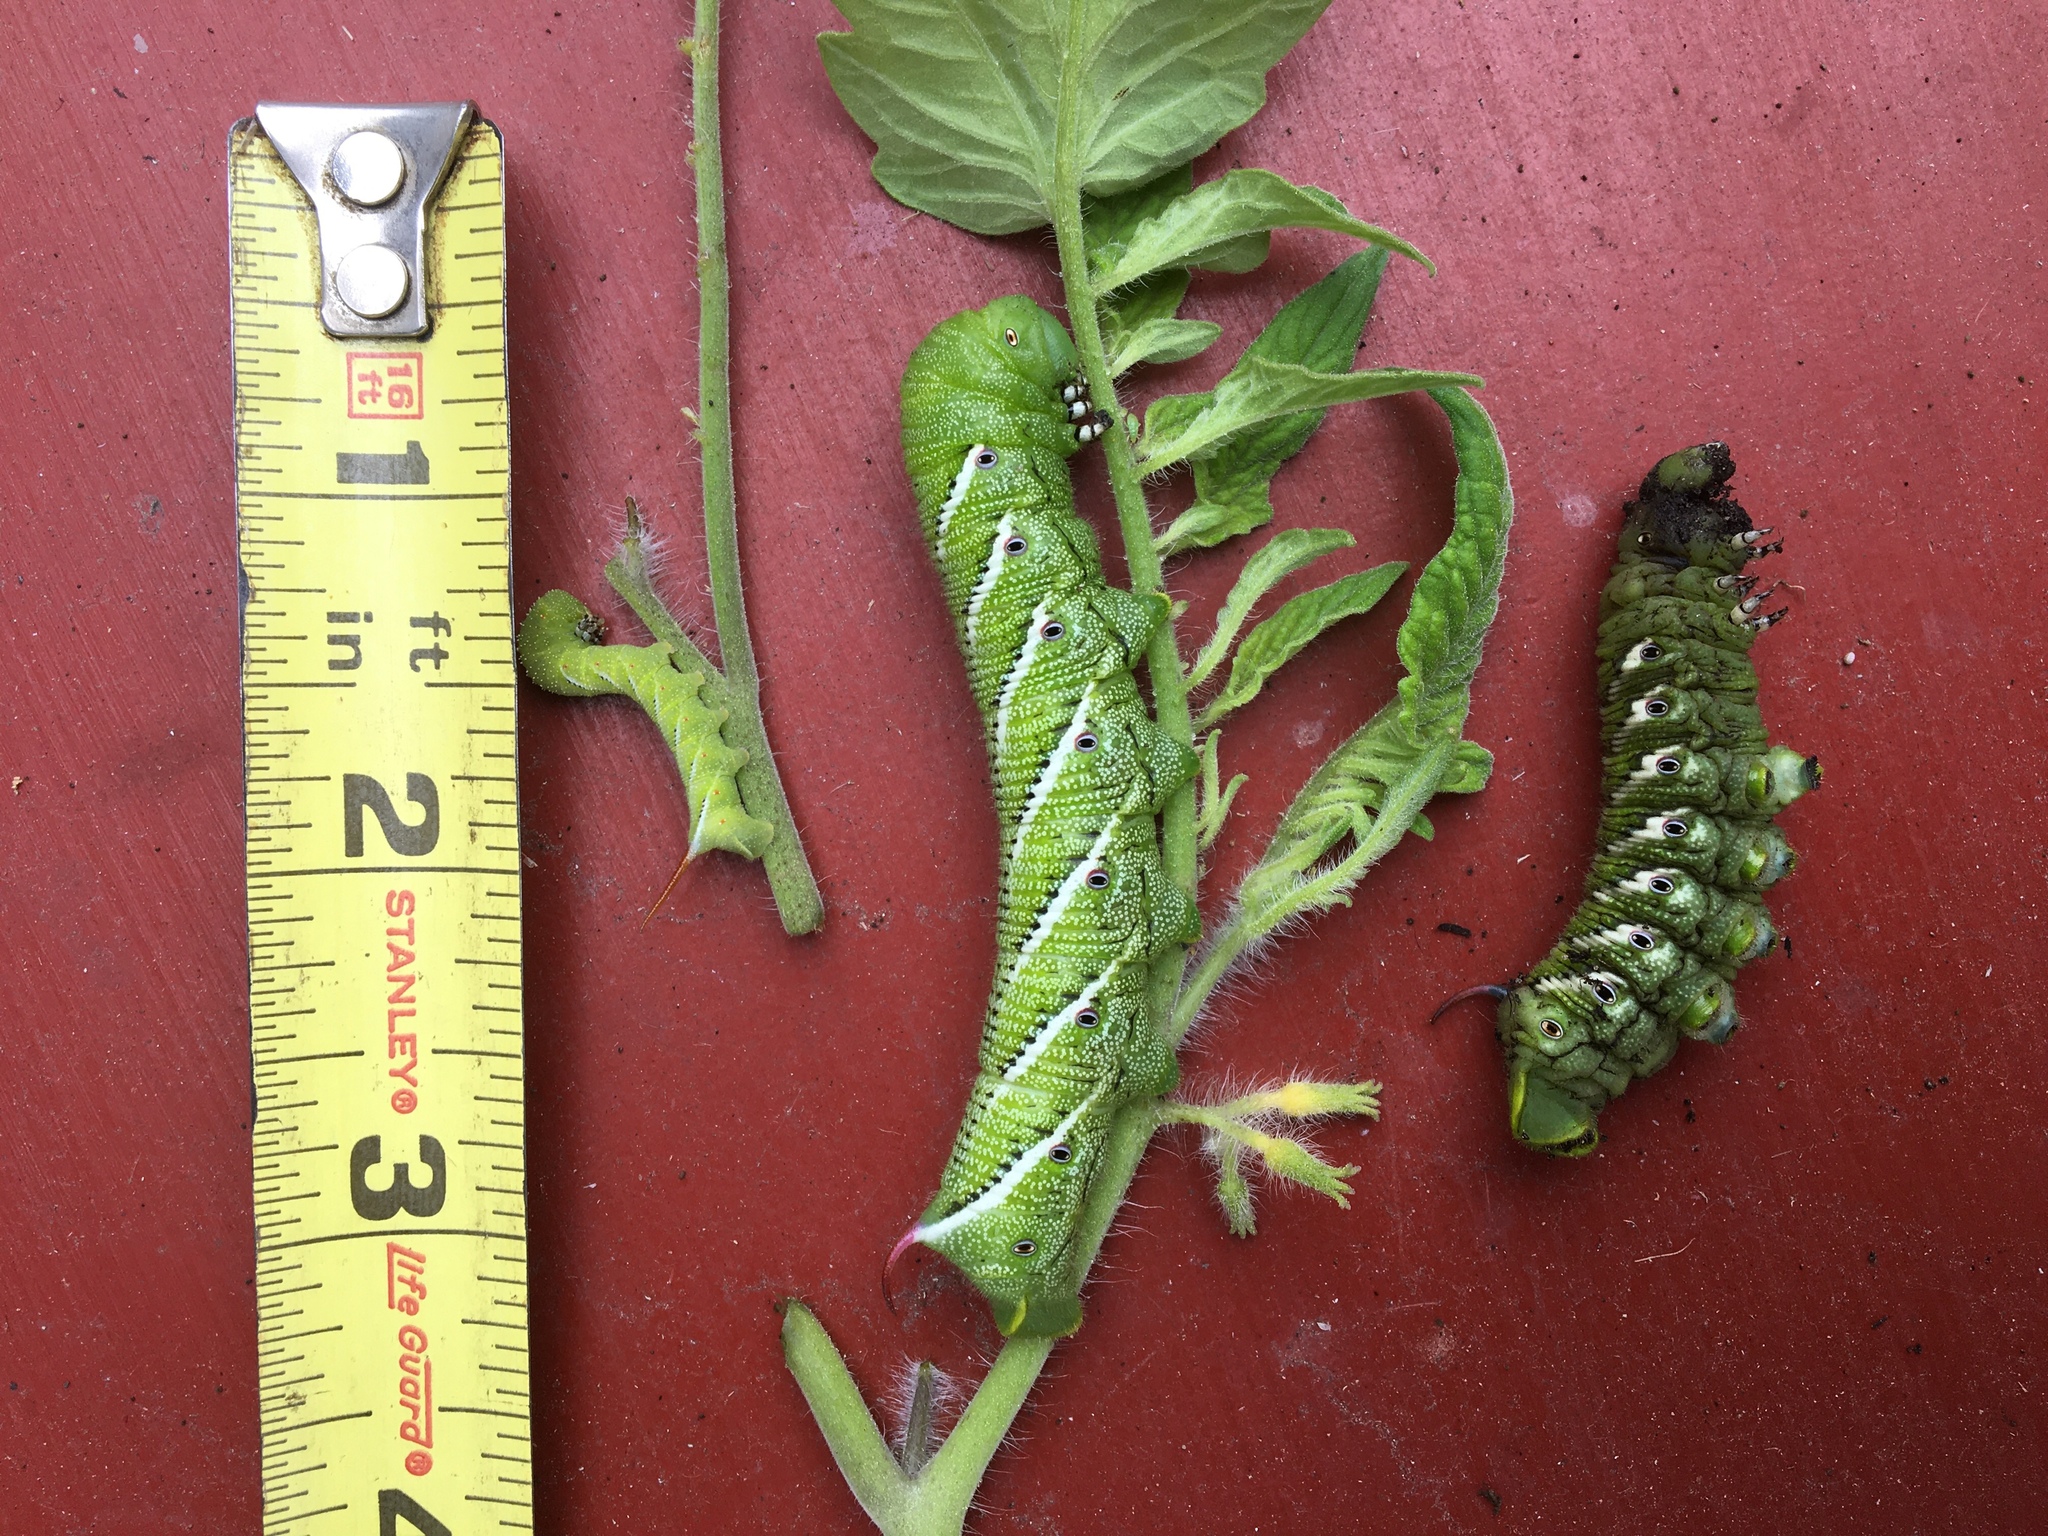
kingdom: Animalia
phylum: Arthropoda
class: Insecta
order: Lepidoptera
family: Sphingidae
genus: Manduca
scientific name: Manduca sexta
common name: Carolina sphinx
